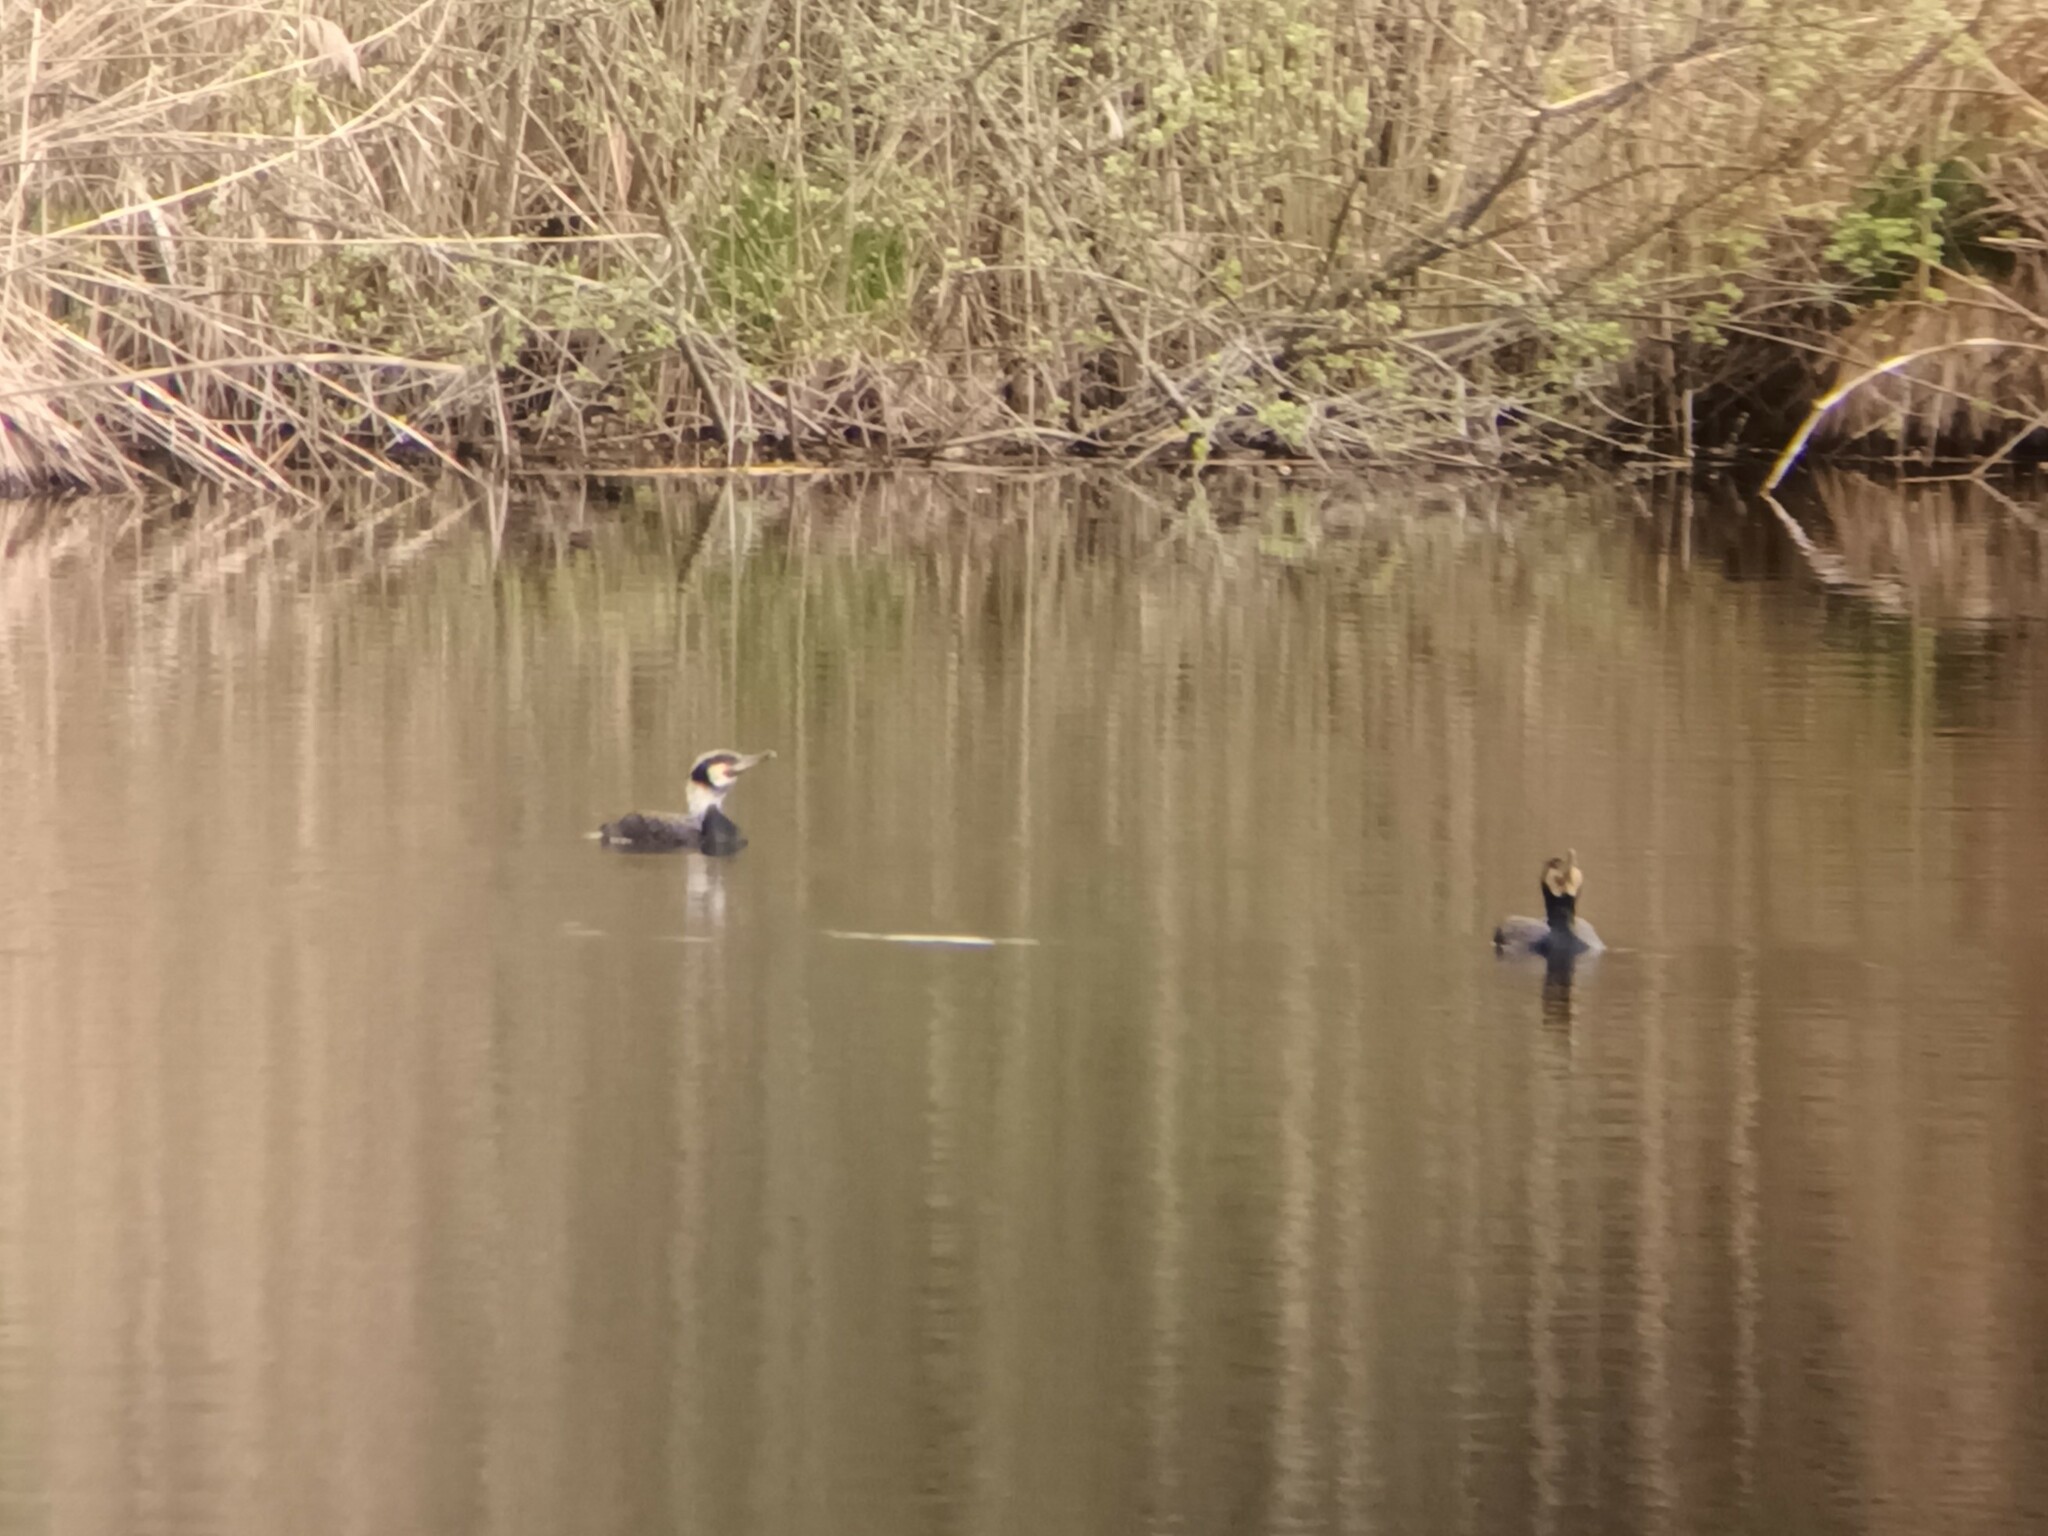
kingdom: Animalia
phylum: Chordata
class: Aves
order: Suliformes
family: Phalacrocoracidae
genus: Phalacrocorax
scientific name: Phalacrocorax carbo
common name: Great cormorant
